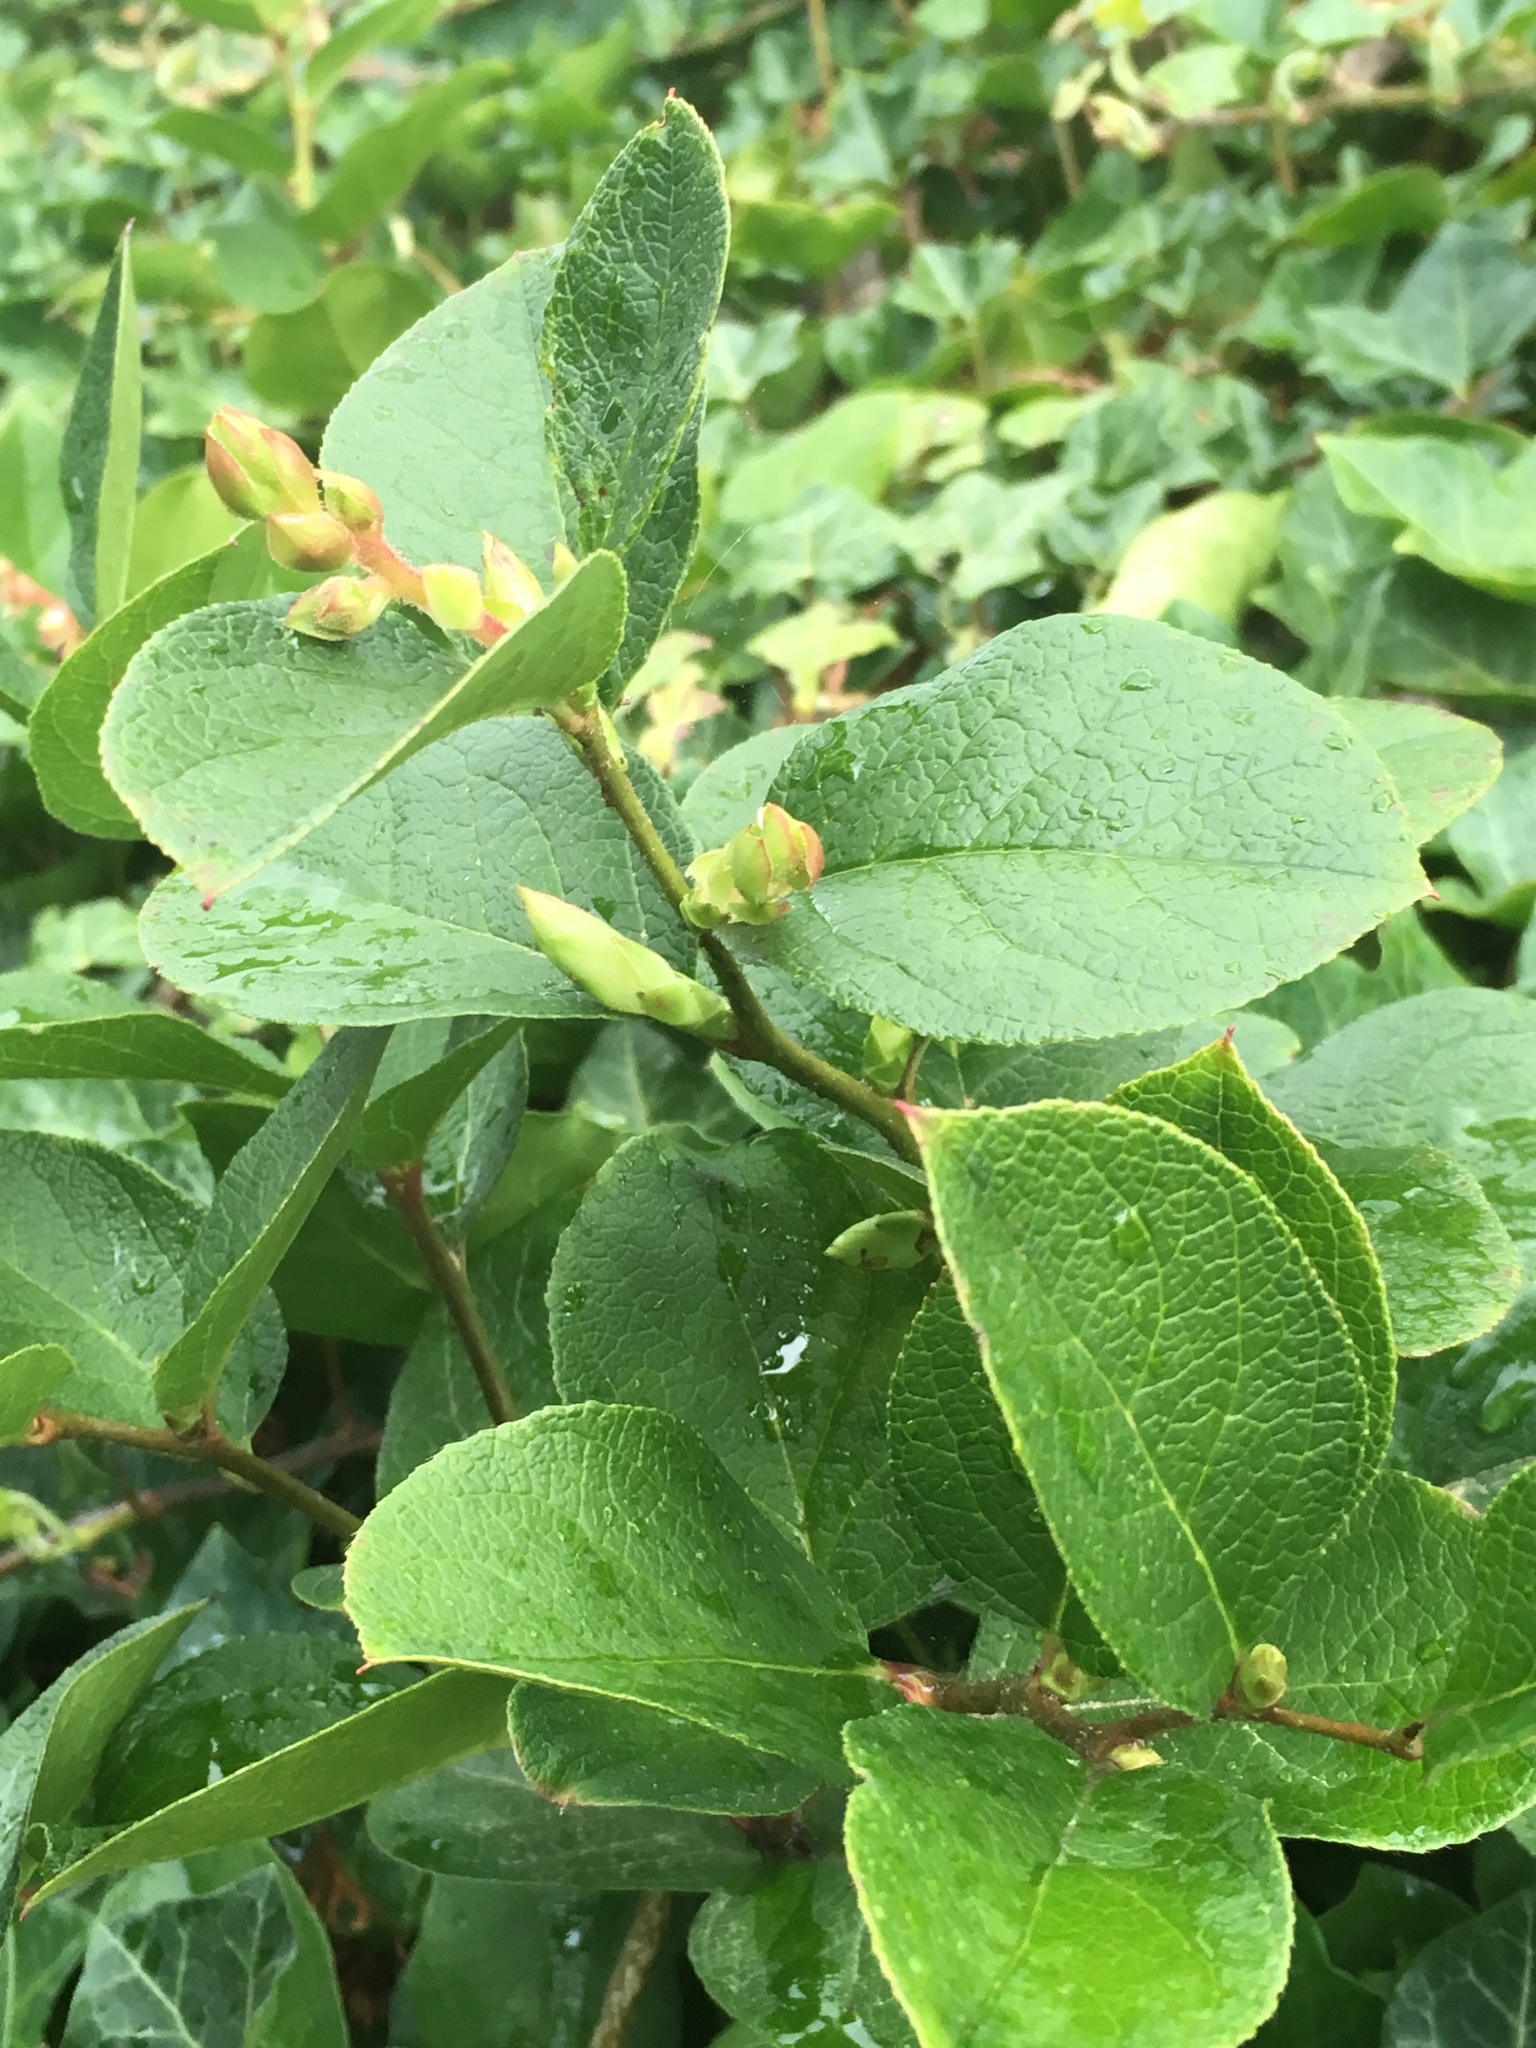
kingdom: Plantae
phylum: Tracheophyta
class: Magnoliopsida
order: Ericales
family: Ericaceae
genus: Gaultheria
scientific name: Gaultheria shallon
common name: Shallon
